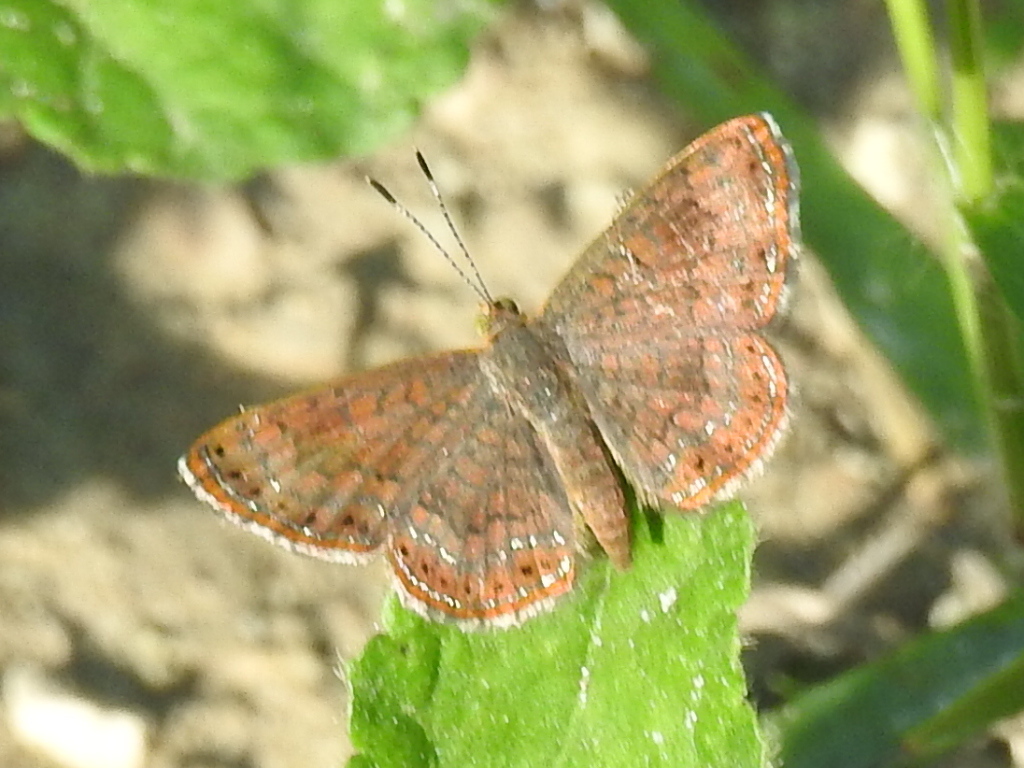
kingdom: Animalia
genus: Calephelis
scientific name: Calephelis nemesis
